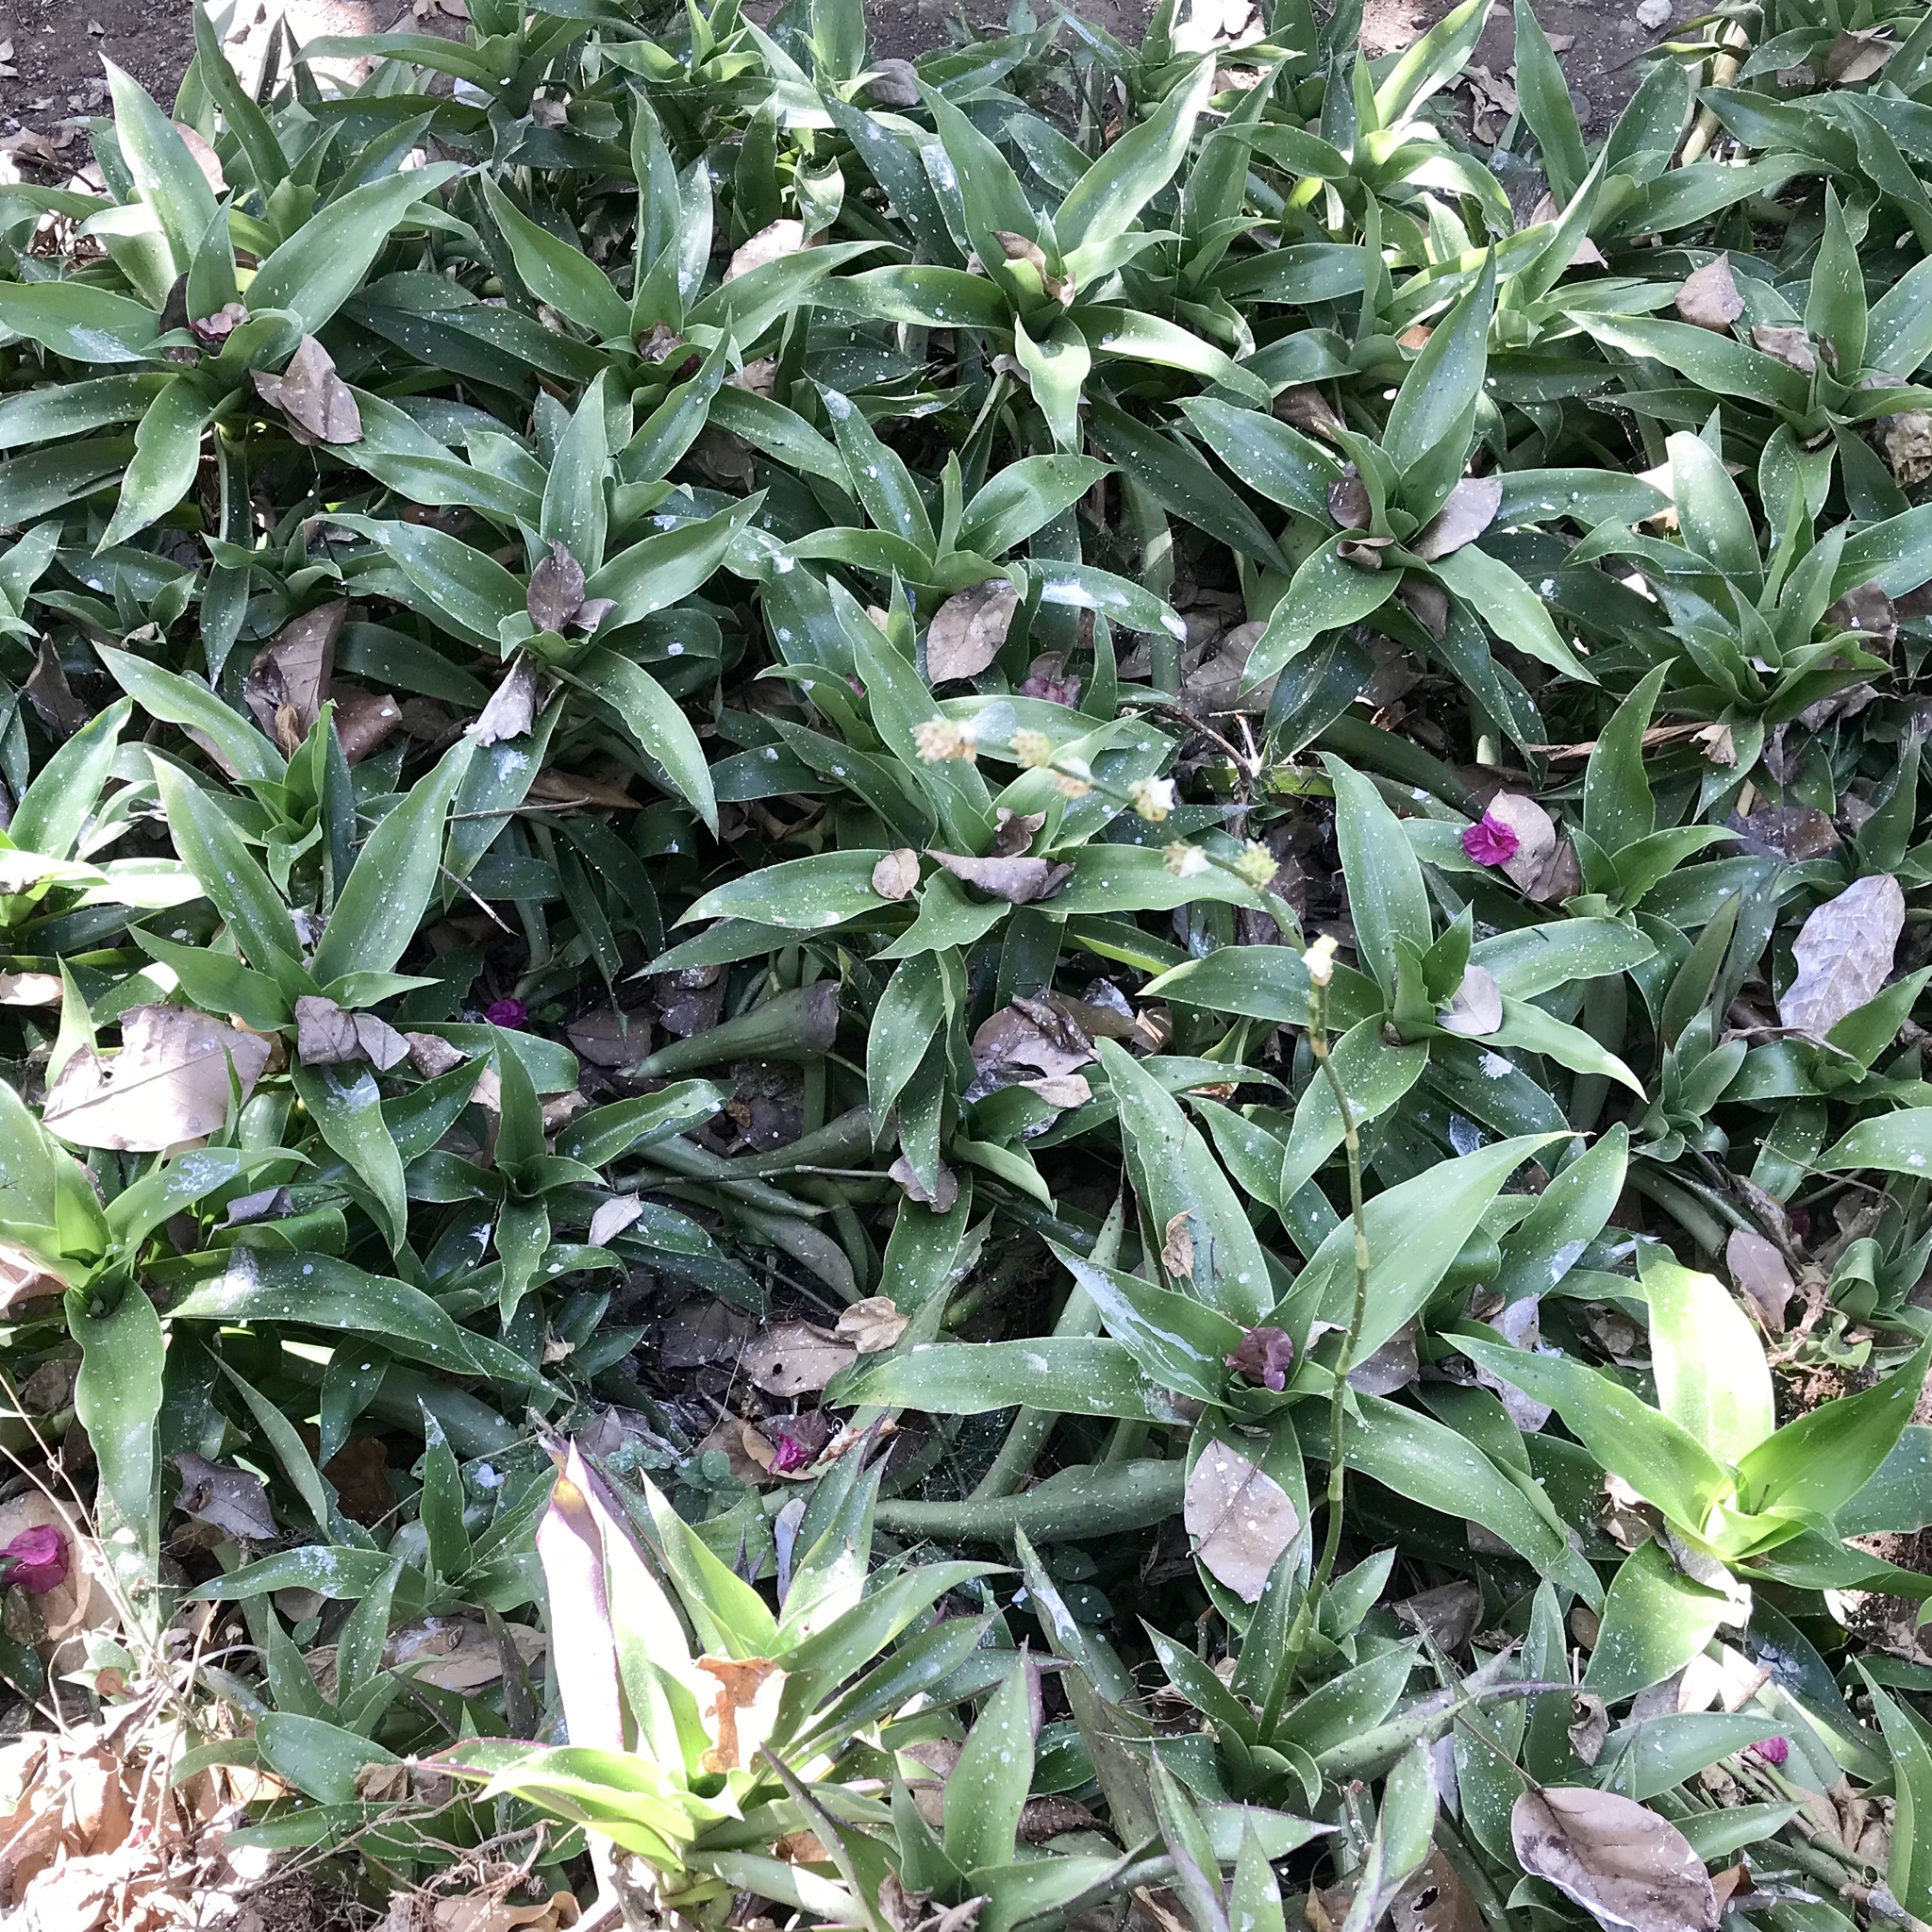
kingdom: Plantae
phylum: Tracheophyta
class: Liliopsida
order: Commelinales
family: Commelinaceae
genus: Callisia
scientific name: Callisia fragrans
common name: Basketplant
